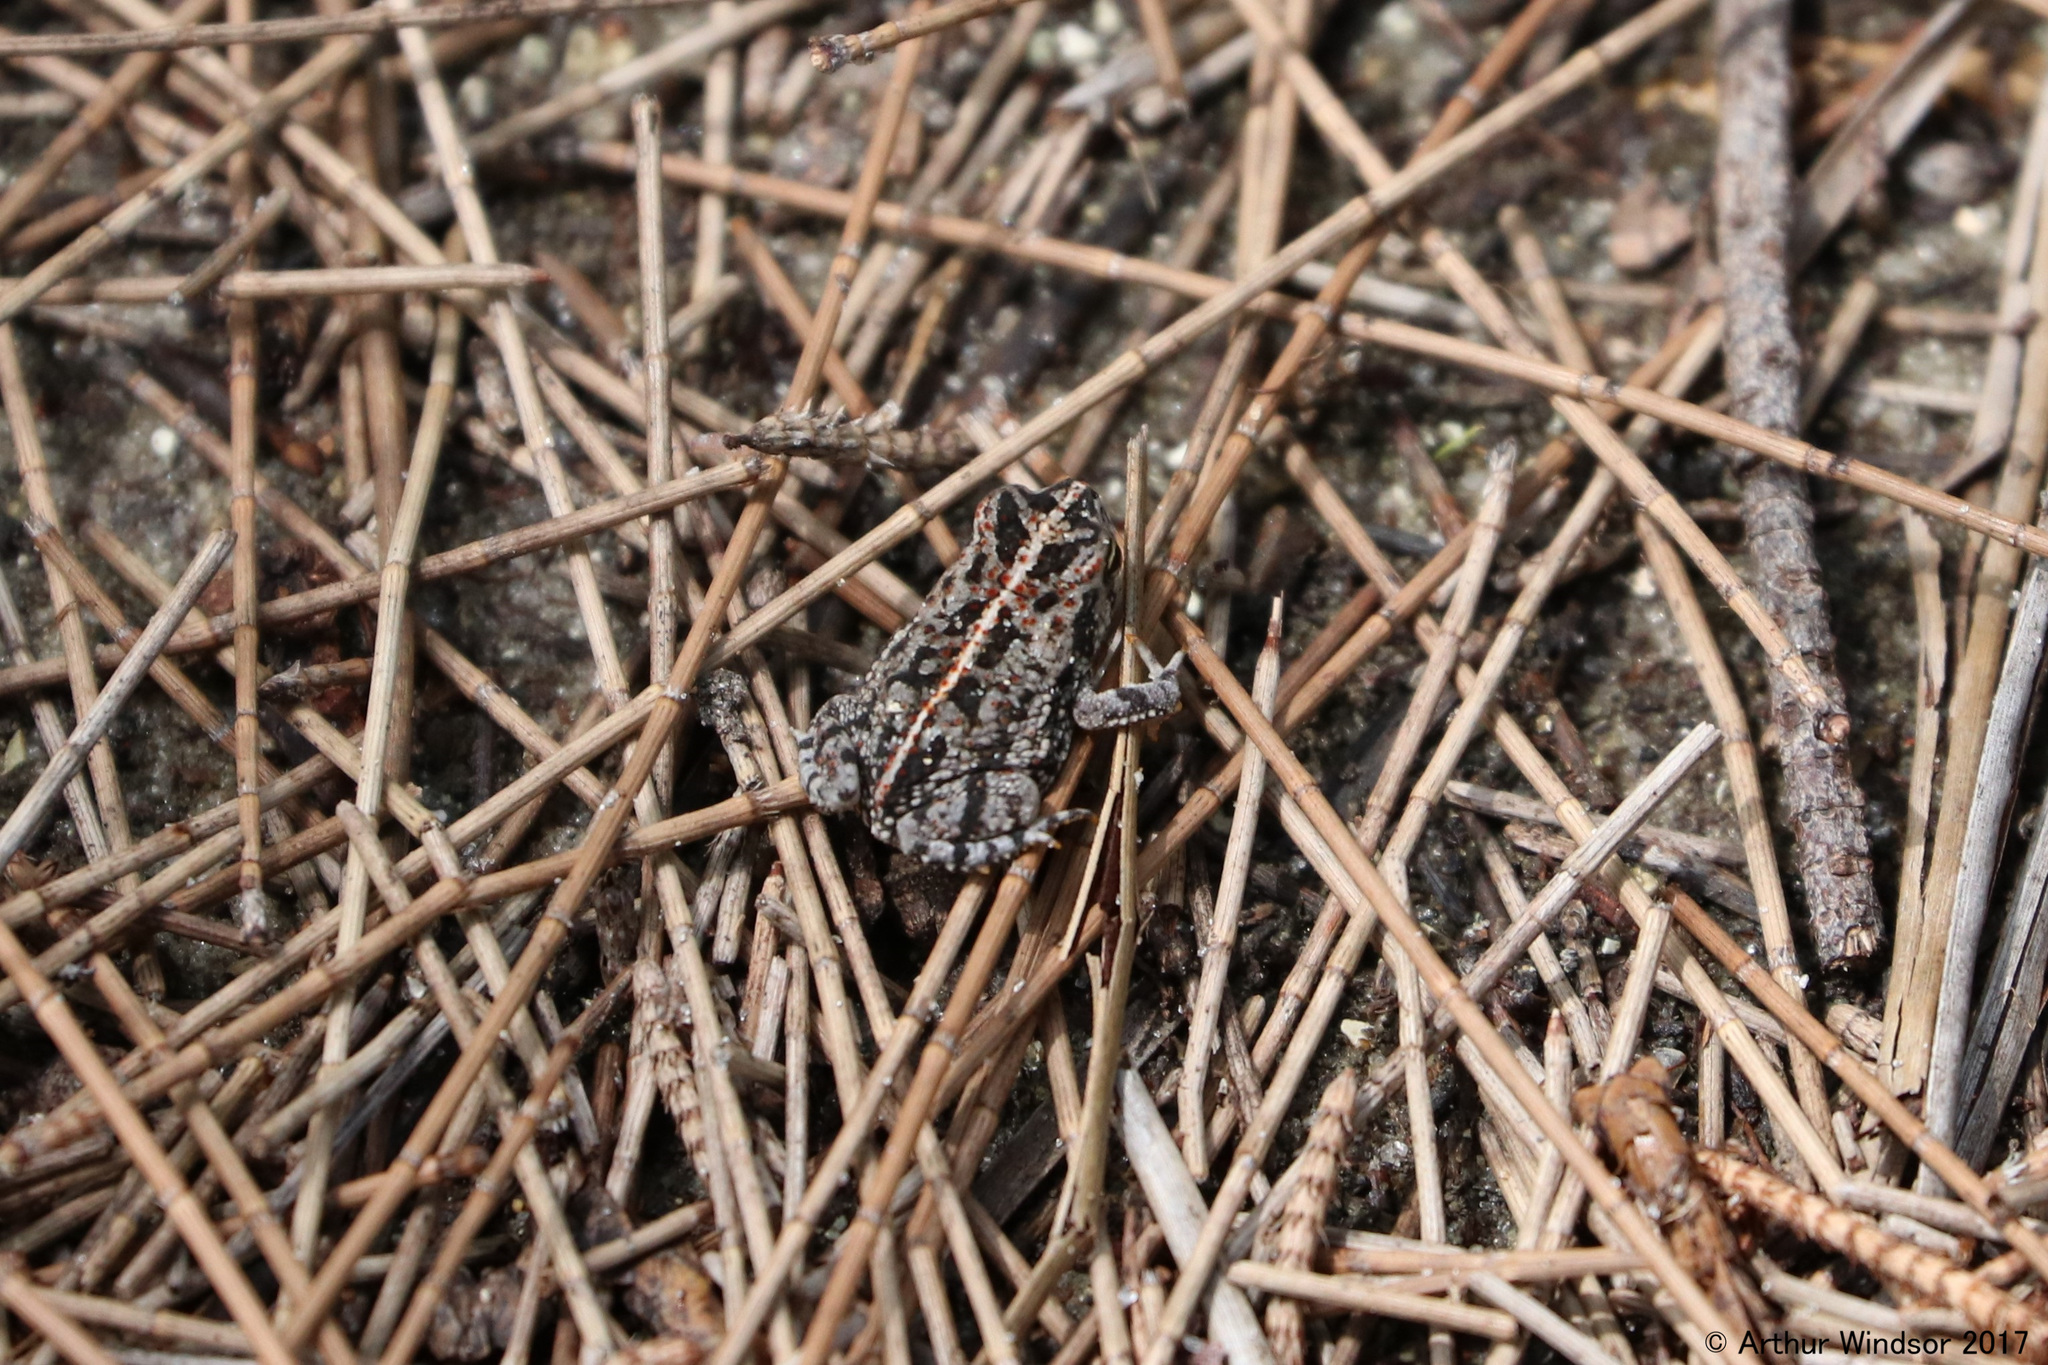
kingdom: Animalia
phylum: Chordata
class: Amphibia
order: Anura
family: Bufonidae
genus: Anaxyrus
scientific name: Anaxyrus quercicus
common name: Oak toad
